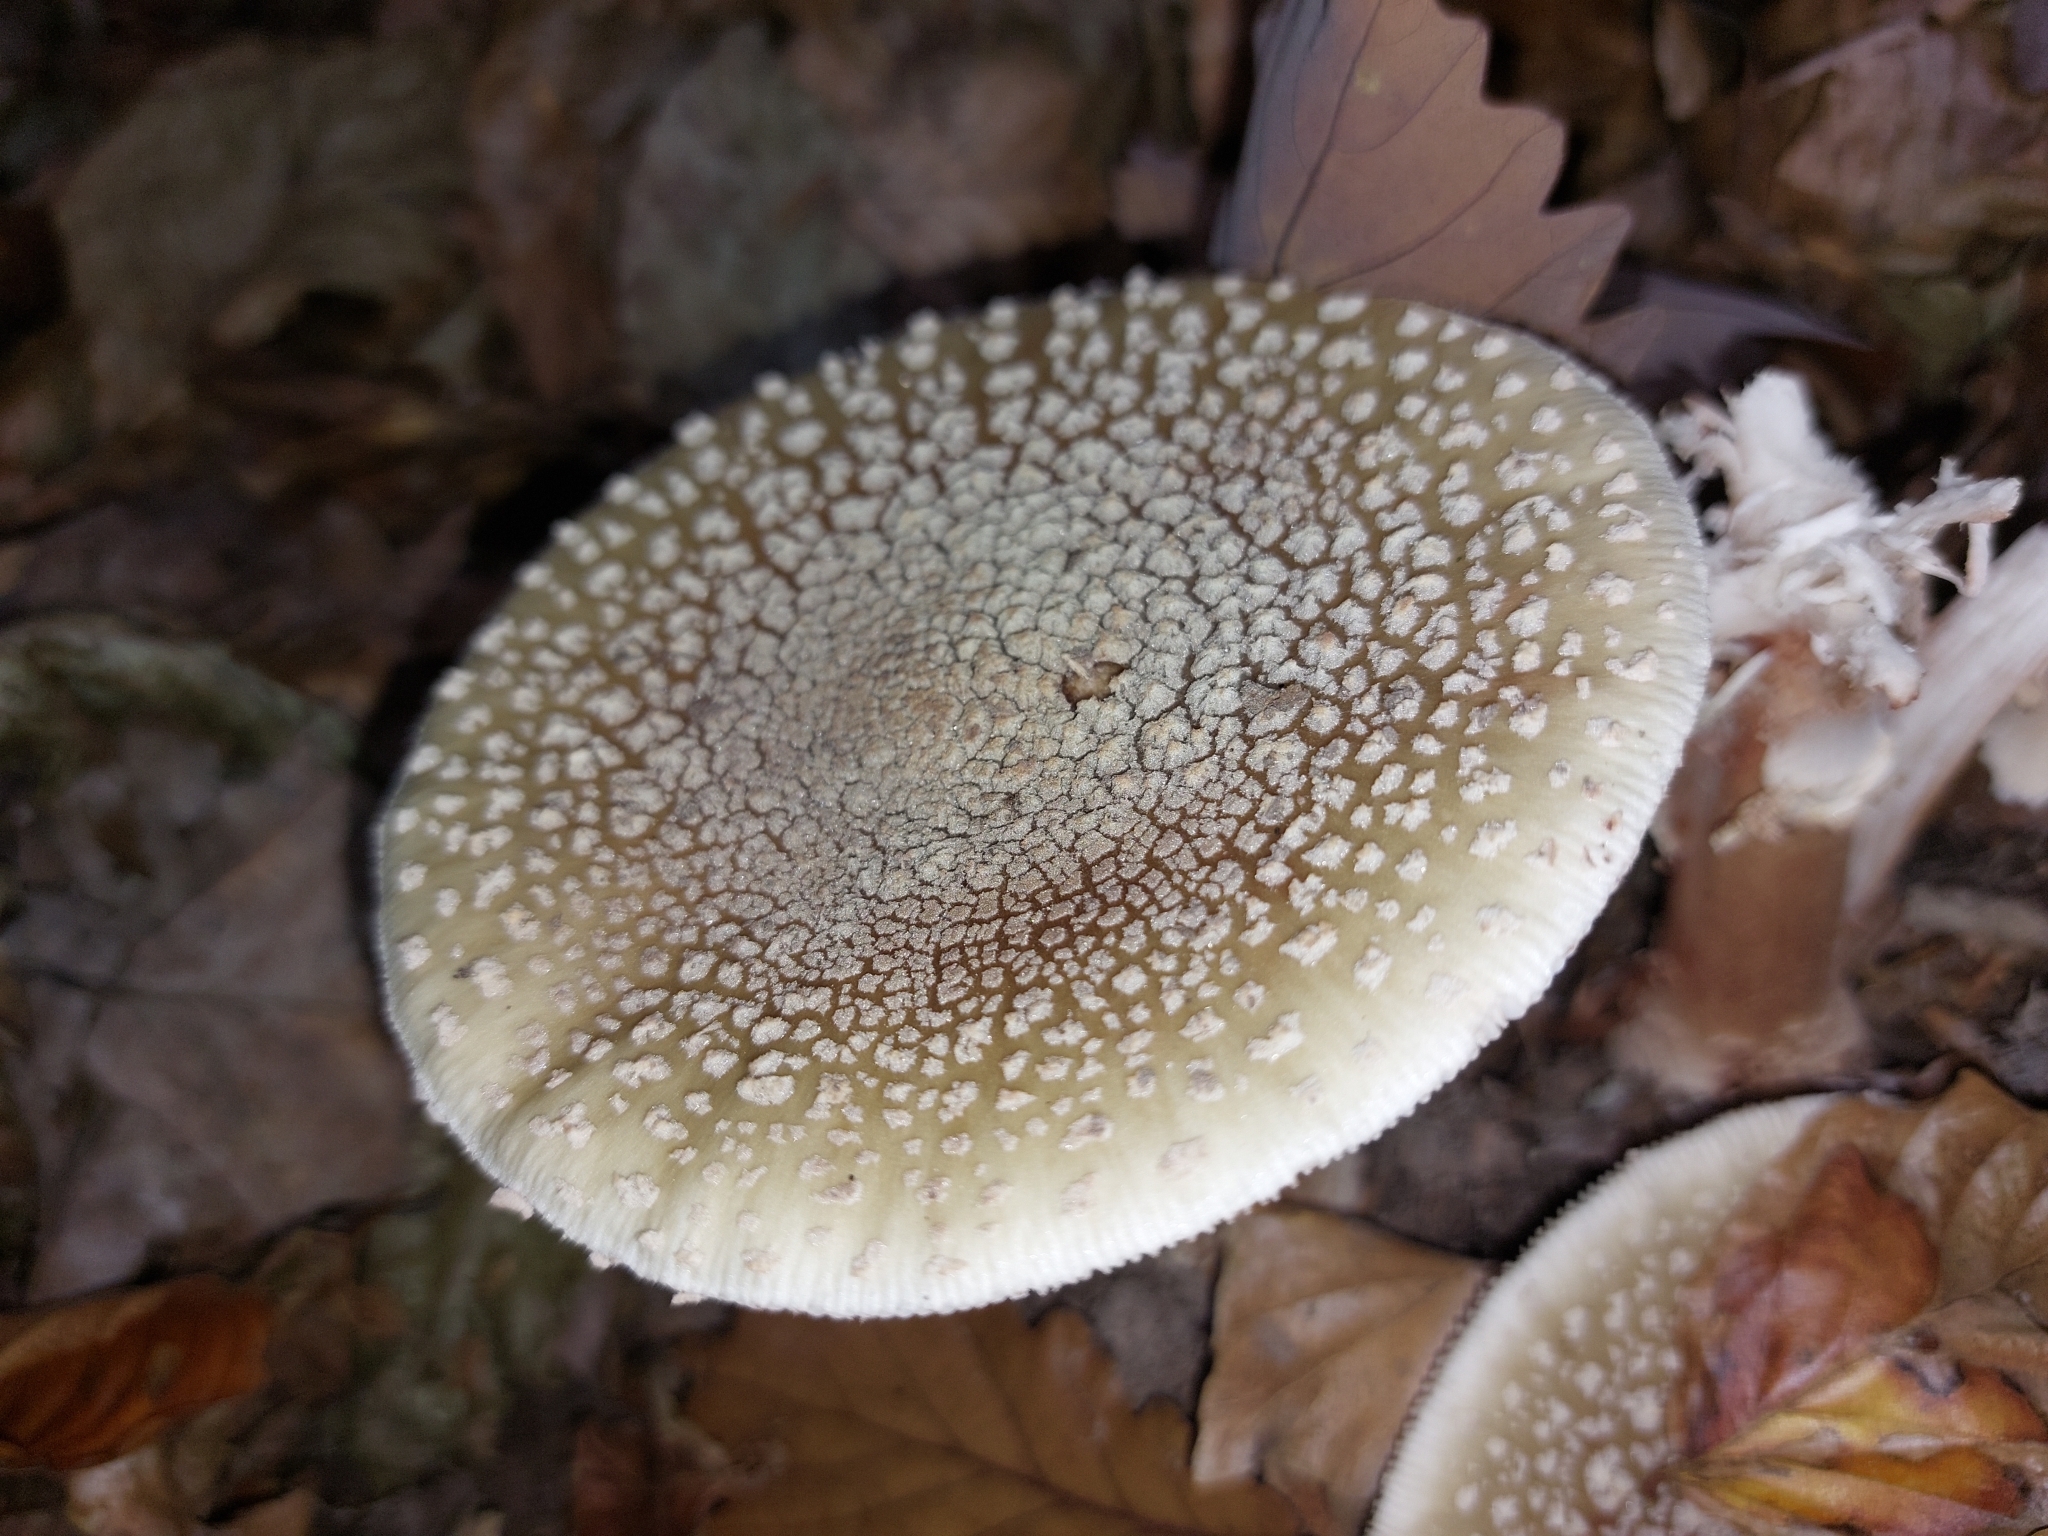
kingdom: Fungi
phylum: Basidiomycota
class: Agaricomycetes
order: Agaricales
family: Amanitaceae
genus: Amanita
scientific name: Amanita rubescens
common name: Blusher
